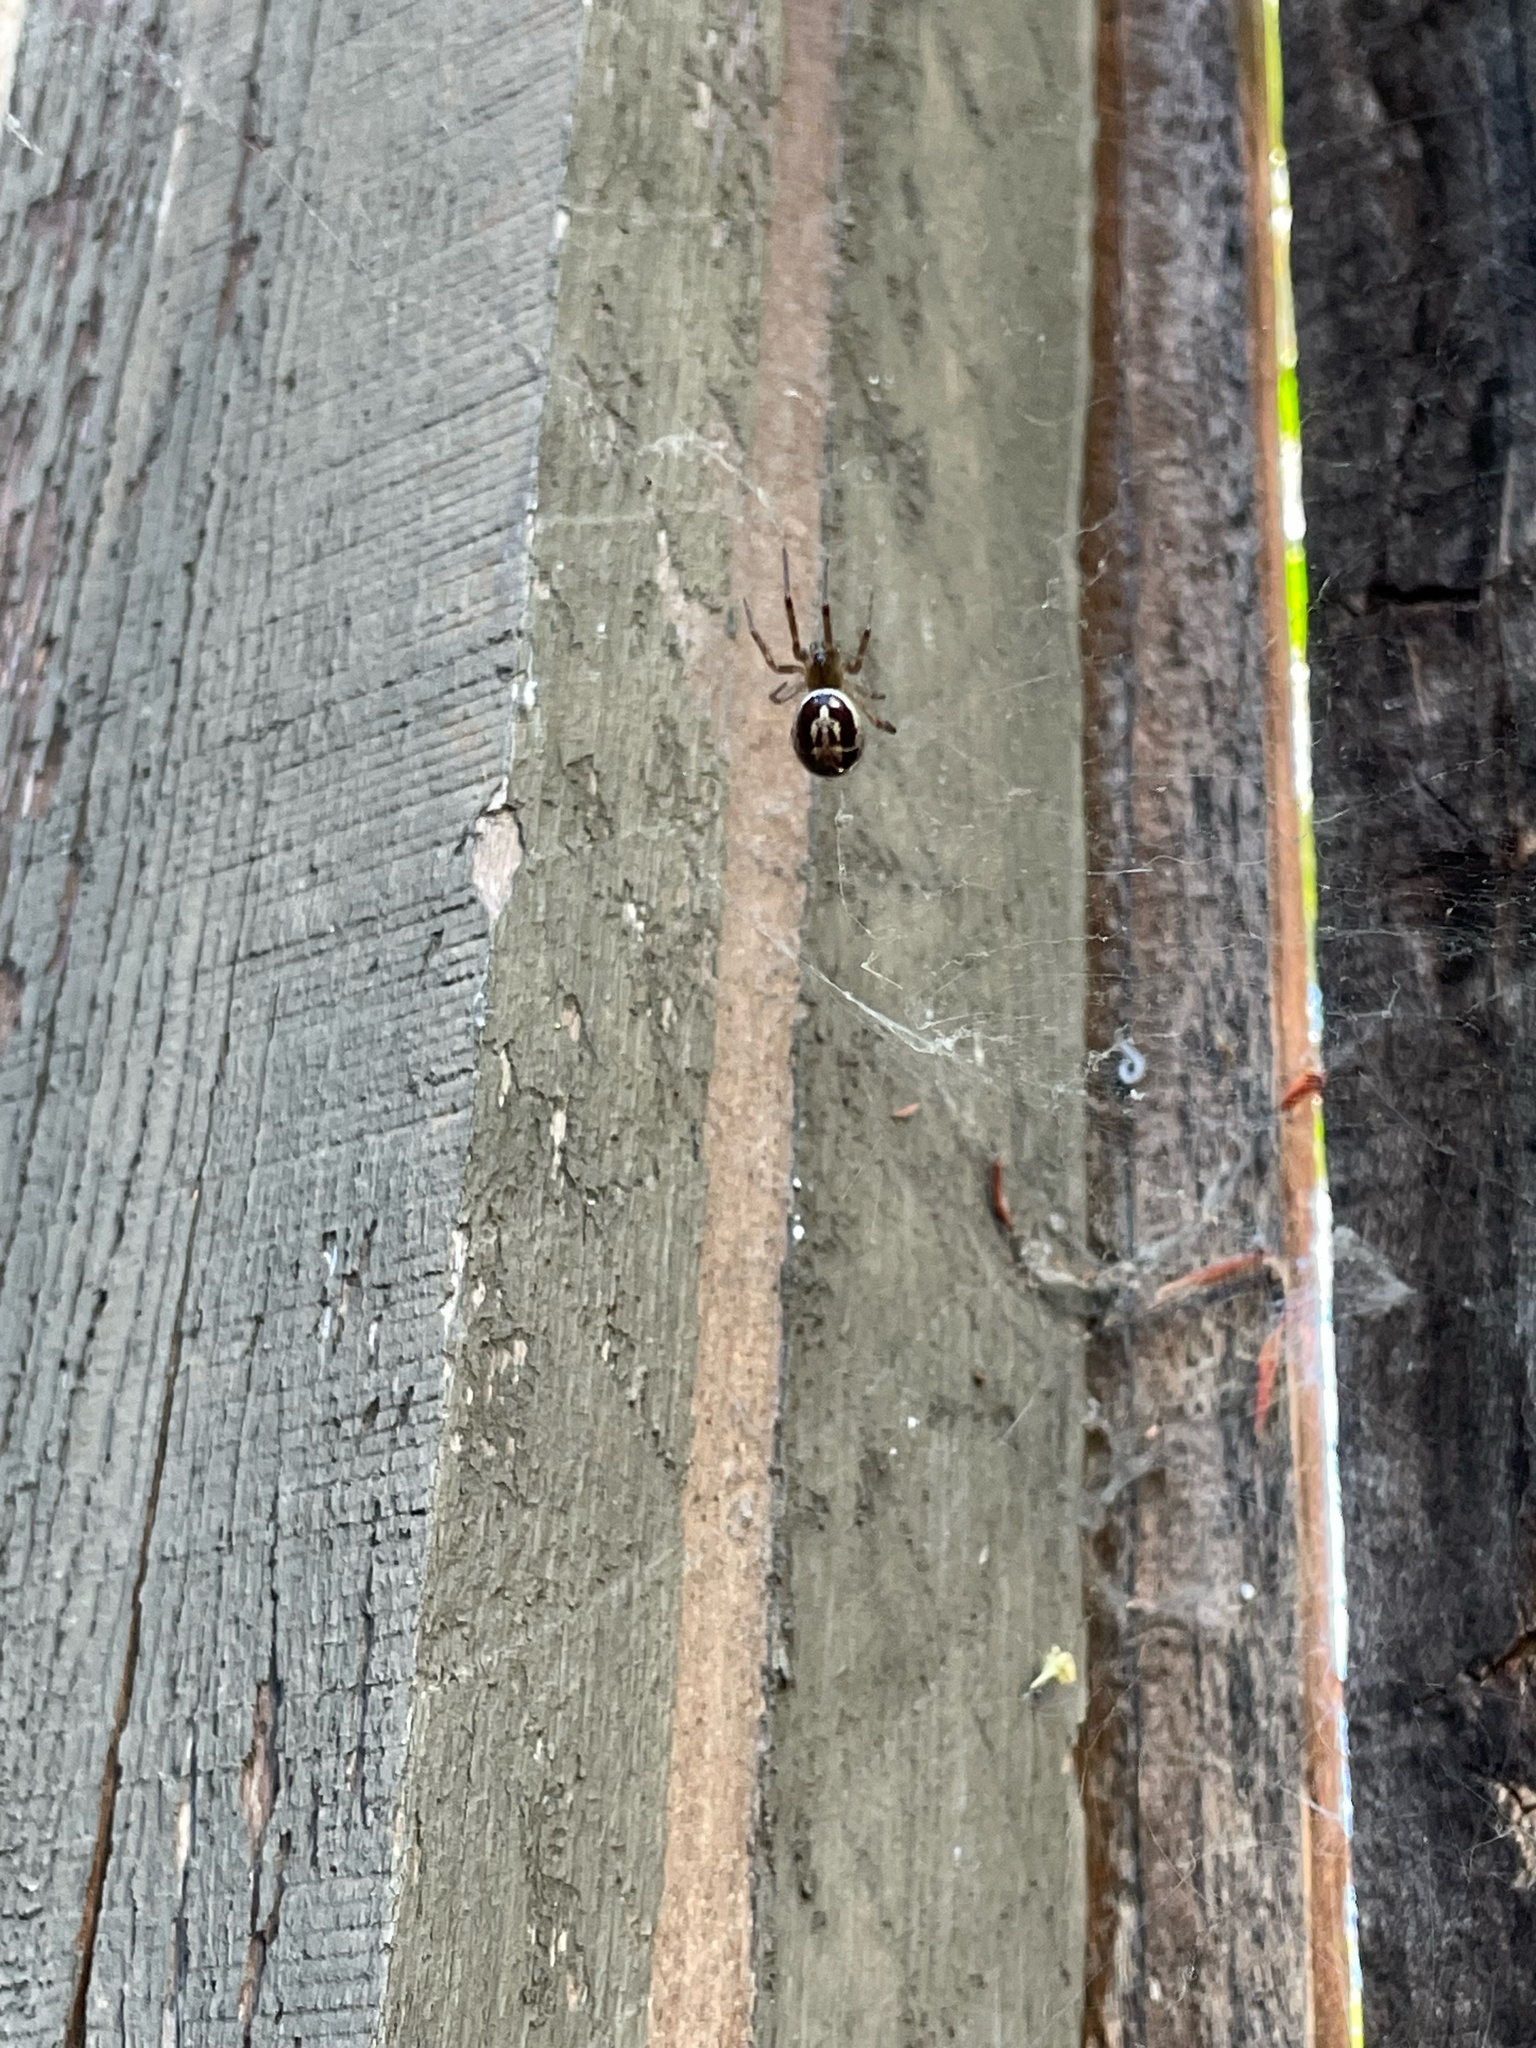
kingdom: Animalia
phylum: Arthropoda
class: Arachnida
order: Araneae
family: Theridiidae
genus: Steatoda
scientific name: Steatoda nobilis
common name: Cobweb weaver
